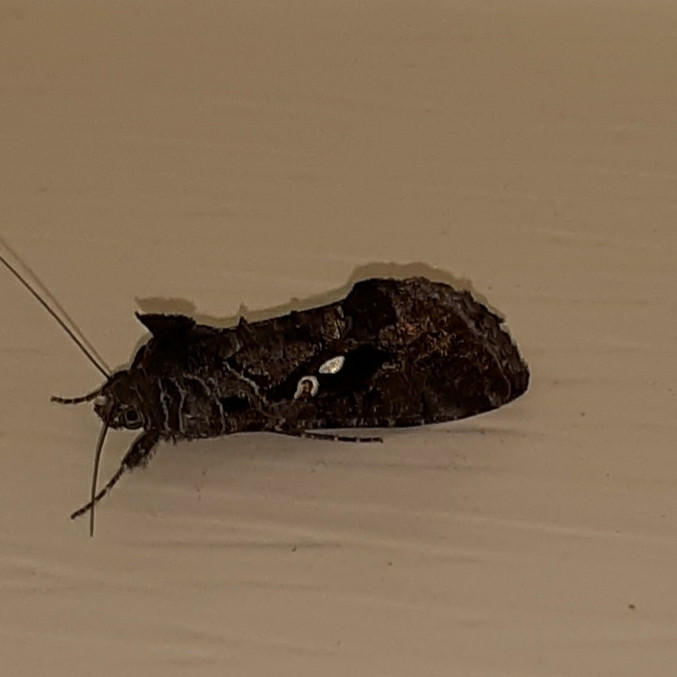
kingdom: Animalia
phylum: Arthropoda
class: Insecta
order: Lepidoptera
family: Noctuidae
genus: Chrysodeixis
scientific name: Chrysodeixis includens
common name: Cutworm moth
